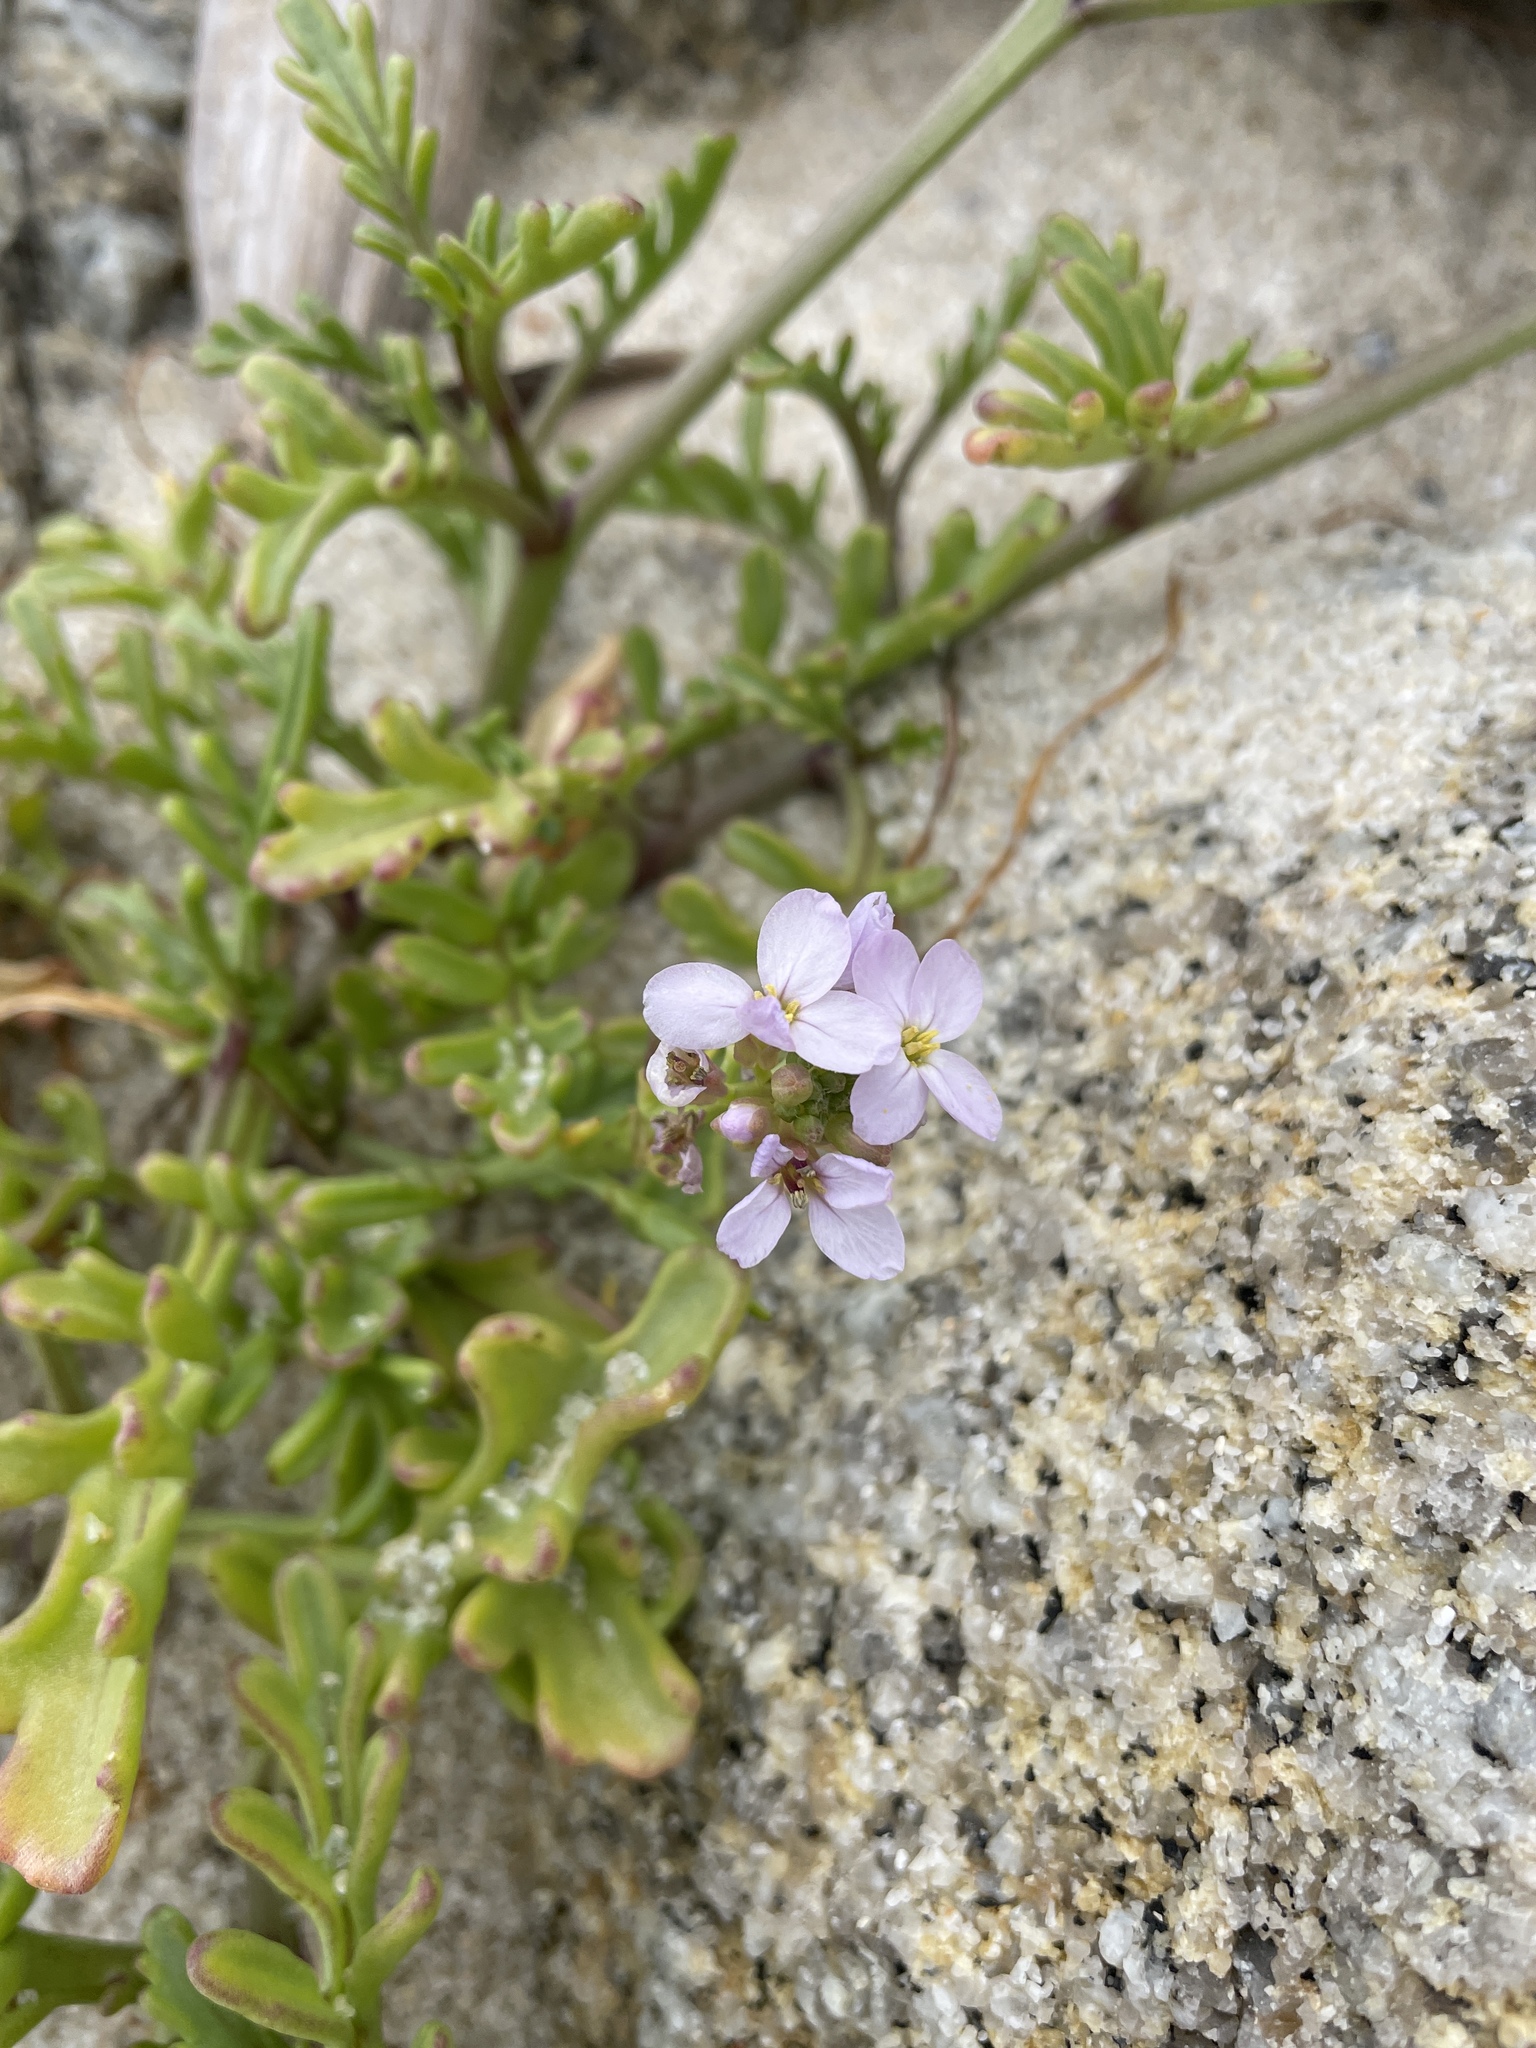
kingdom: Plantae
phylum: Tracheophyta
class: Magnoliopsida
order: Brassicales
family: Brassicaceae
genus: Cakile
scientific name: Cakile maritima
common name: Sea rocket
